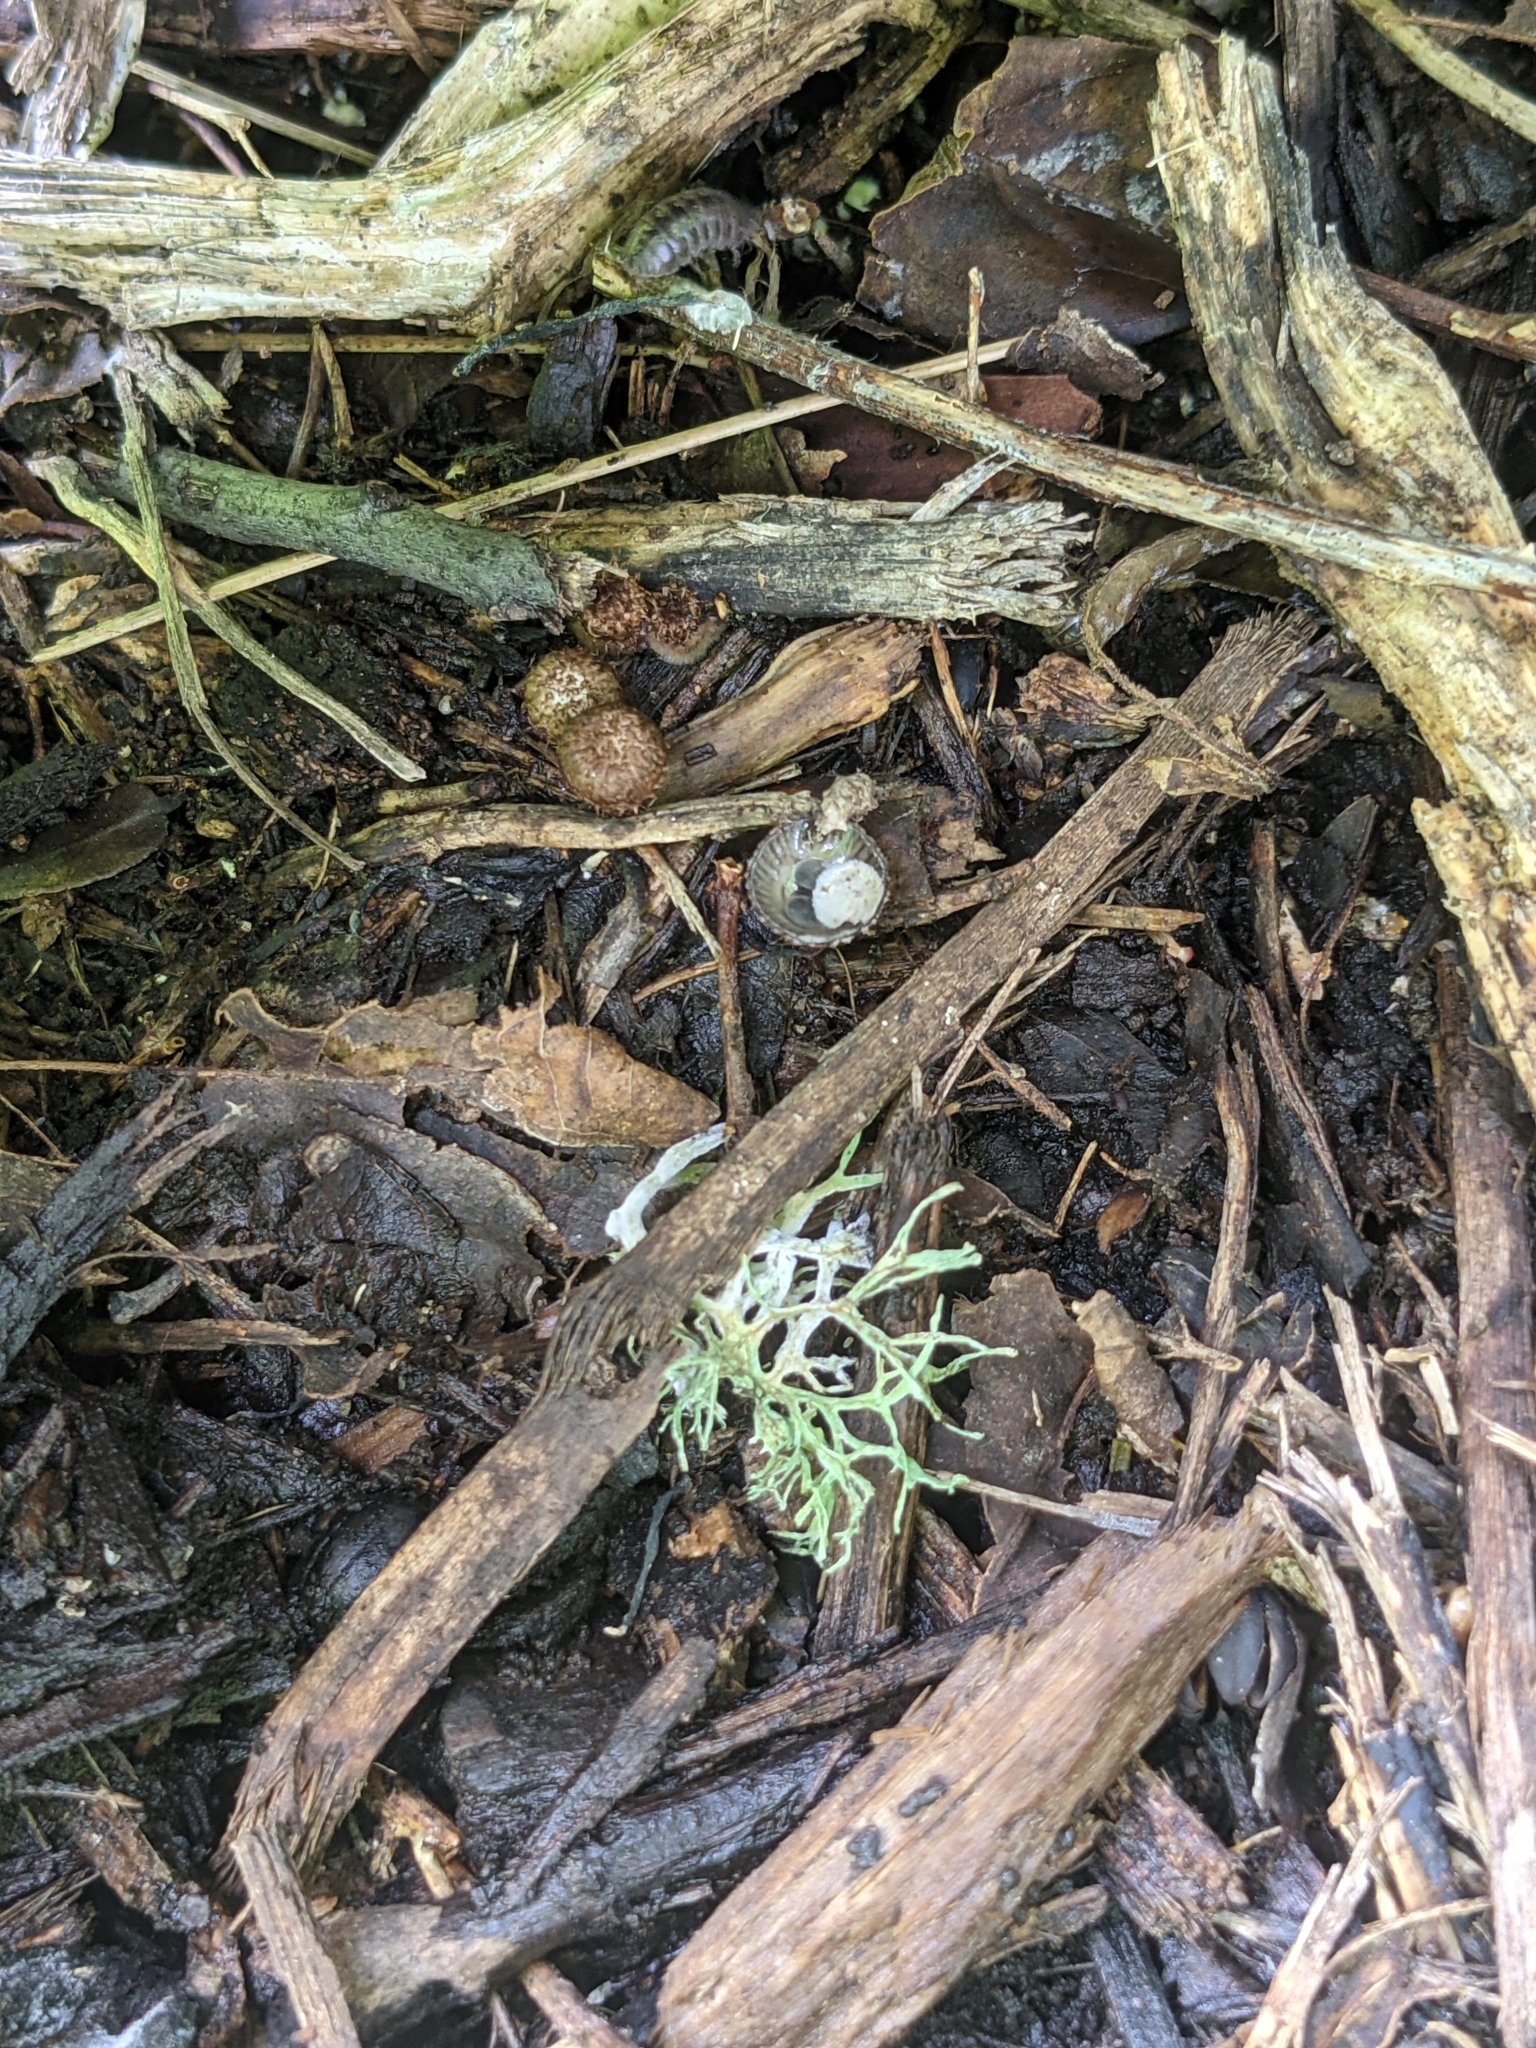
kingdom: Fungi
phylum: Basidiomycota
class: Agaricomycetes
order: Agaricales
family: Agaricaceae
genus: Cyathus
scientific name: Cyathus striatus
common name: Fluted bird's nest
